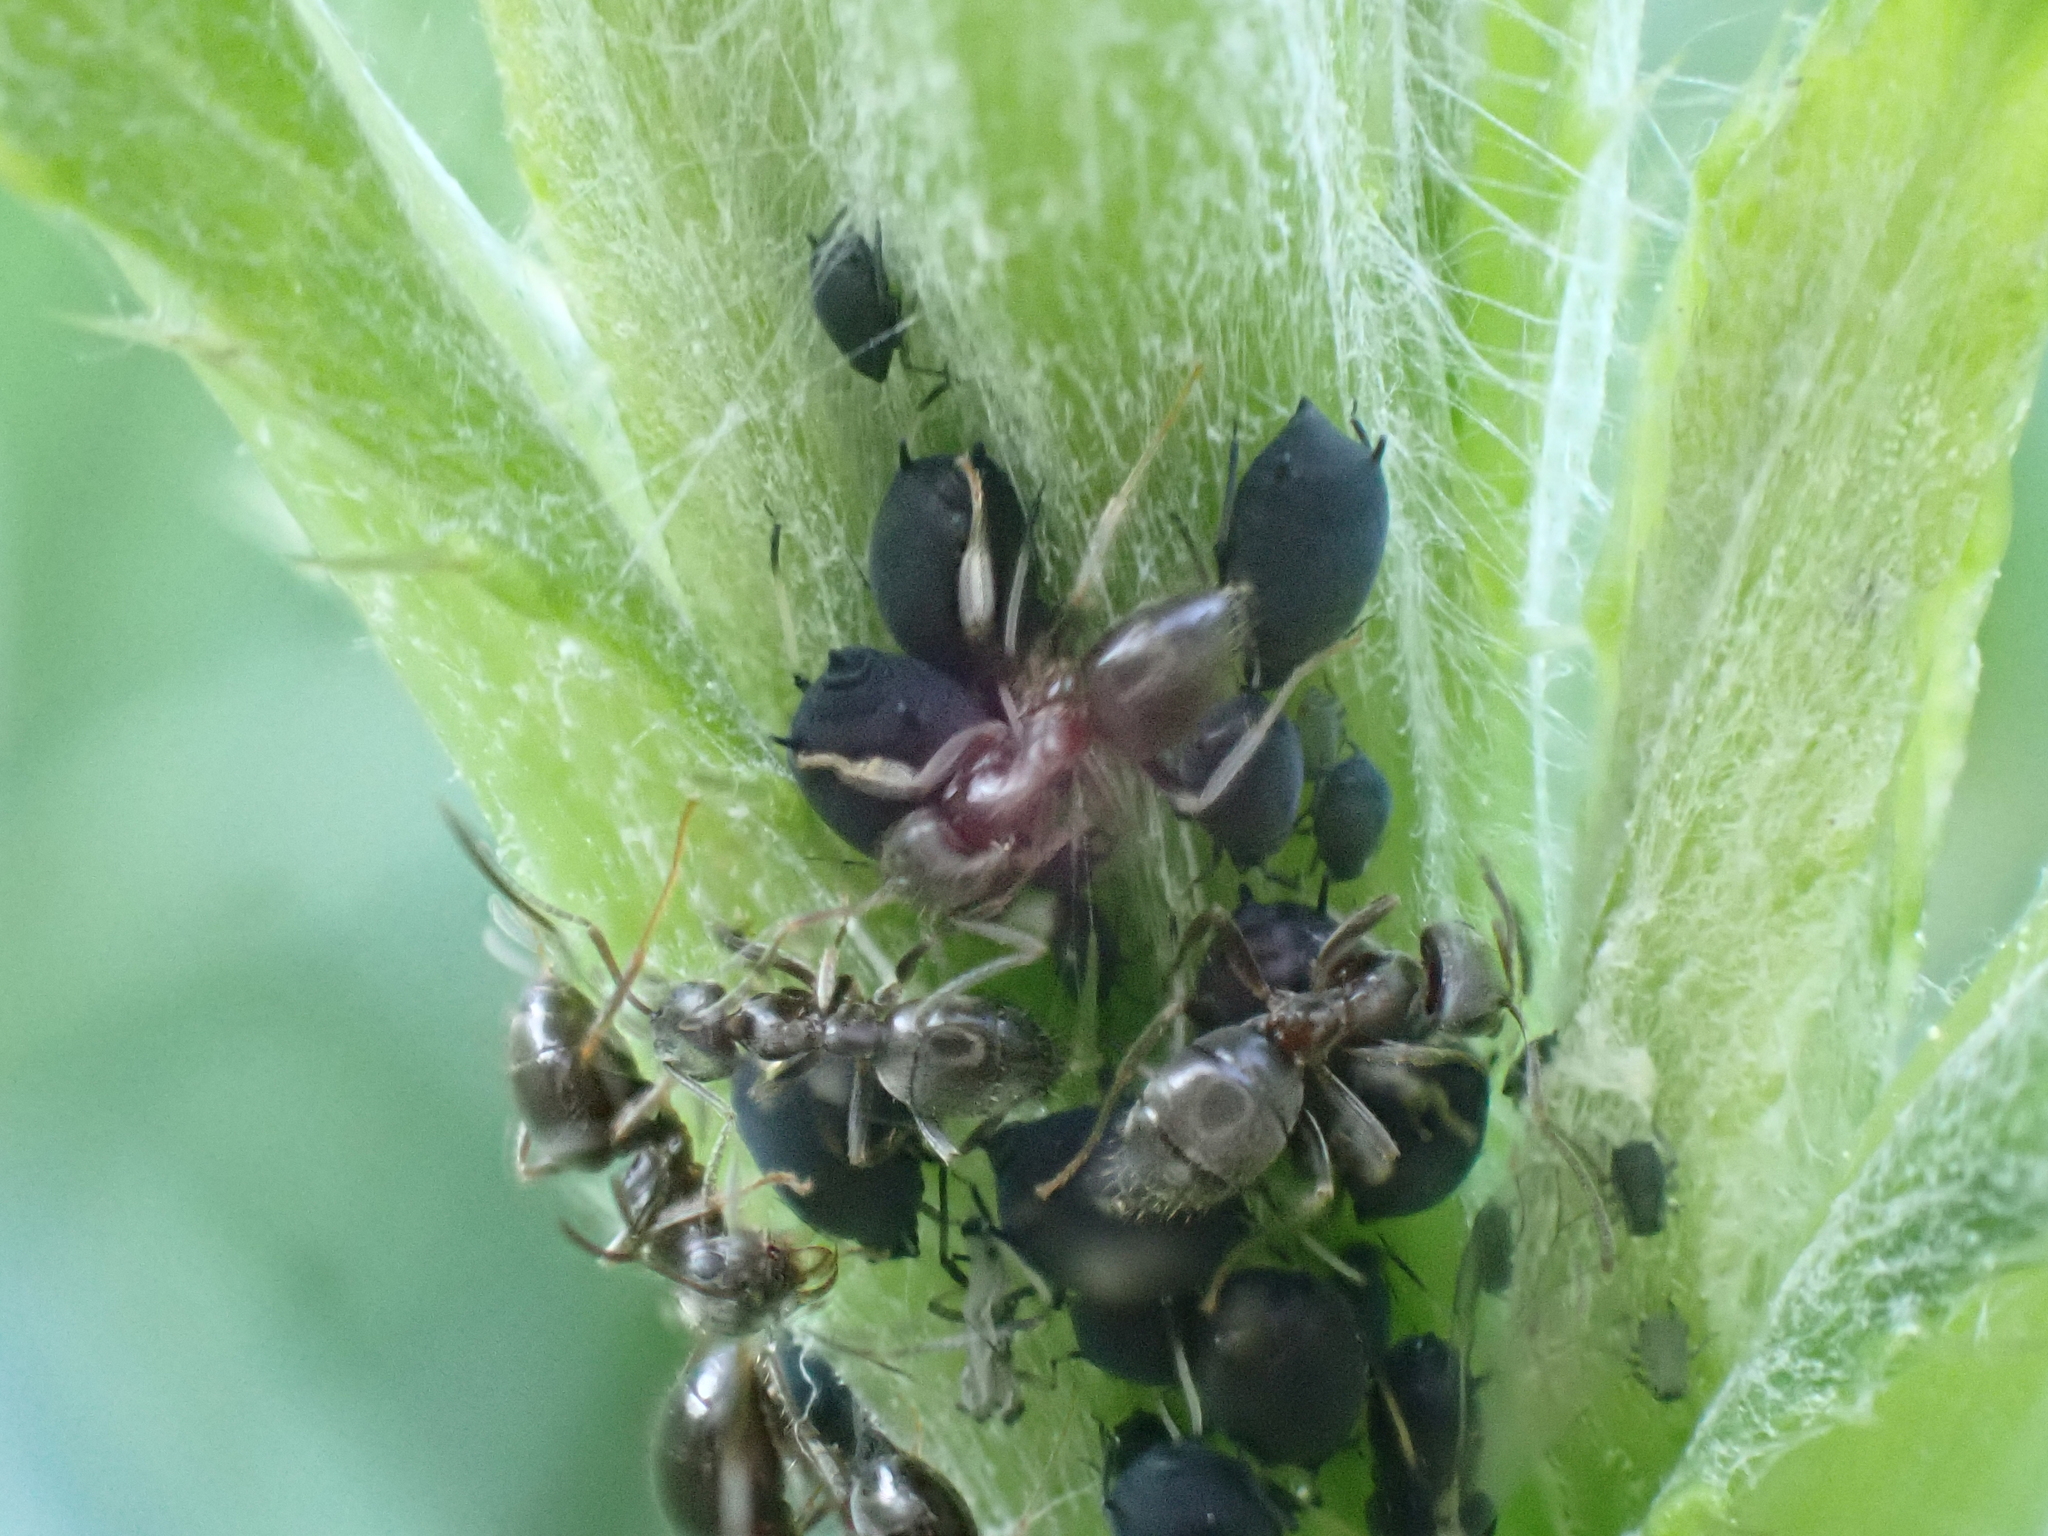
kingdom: Animalia
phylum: Arthropoda
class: Insecta
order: Hymenoptera
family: Formicidae
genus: Lasius
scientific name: Lasius
